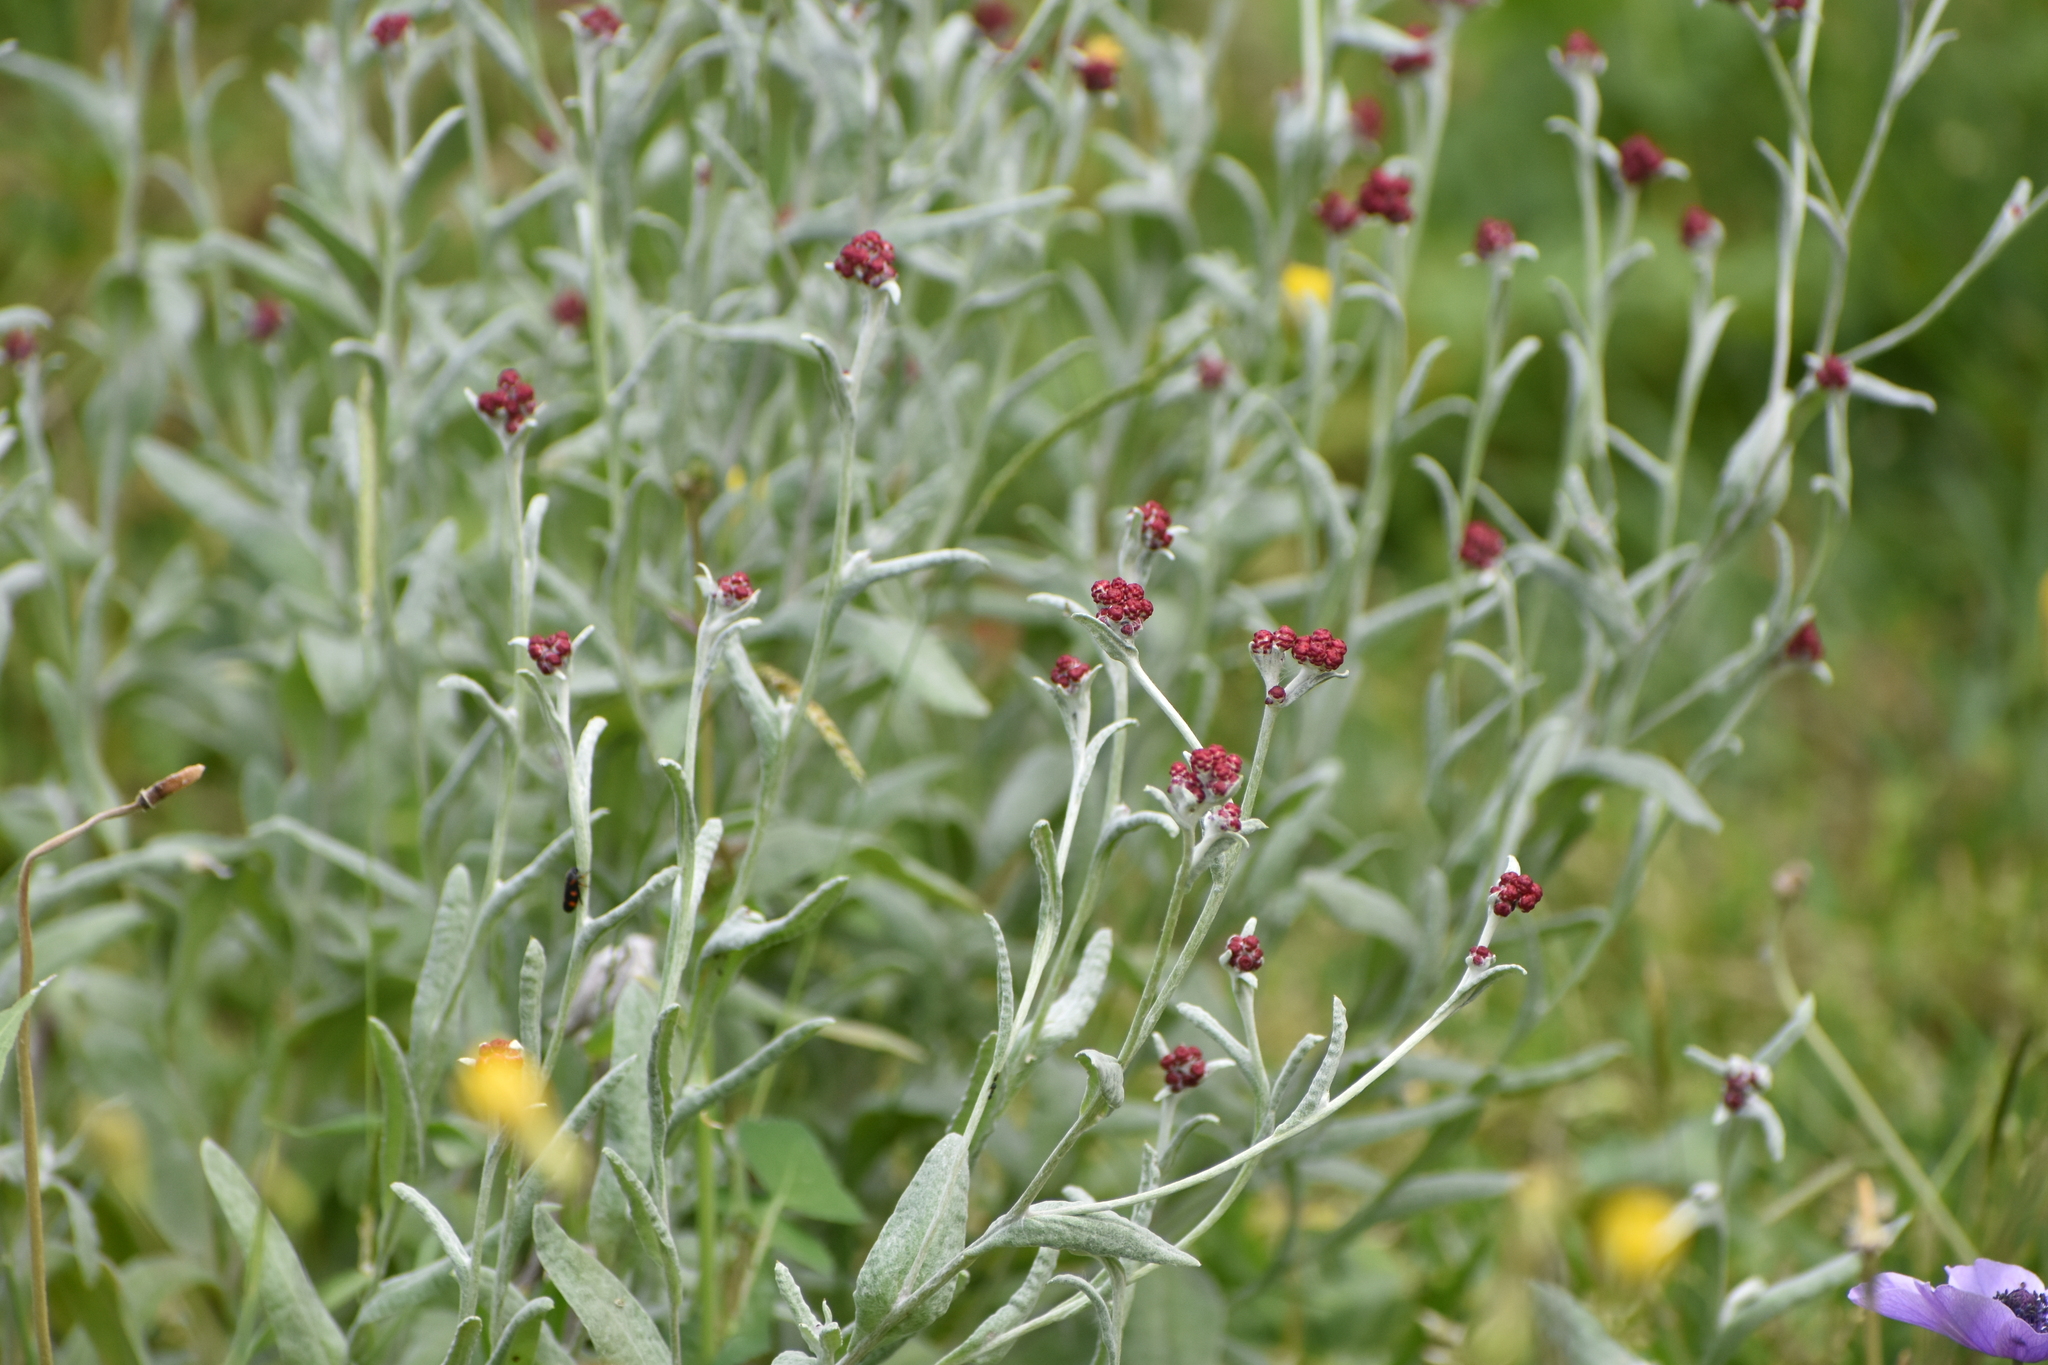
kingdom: Plantae
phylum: Tracheophyta
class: Magnoliopsida
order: Asterales
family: Asteraceae
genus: Helichrysum
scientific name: Helichrysum sanguineum
